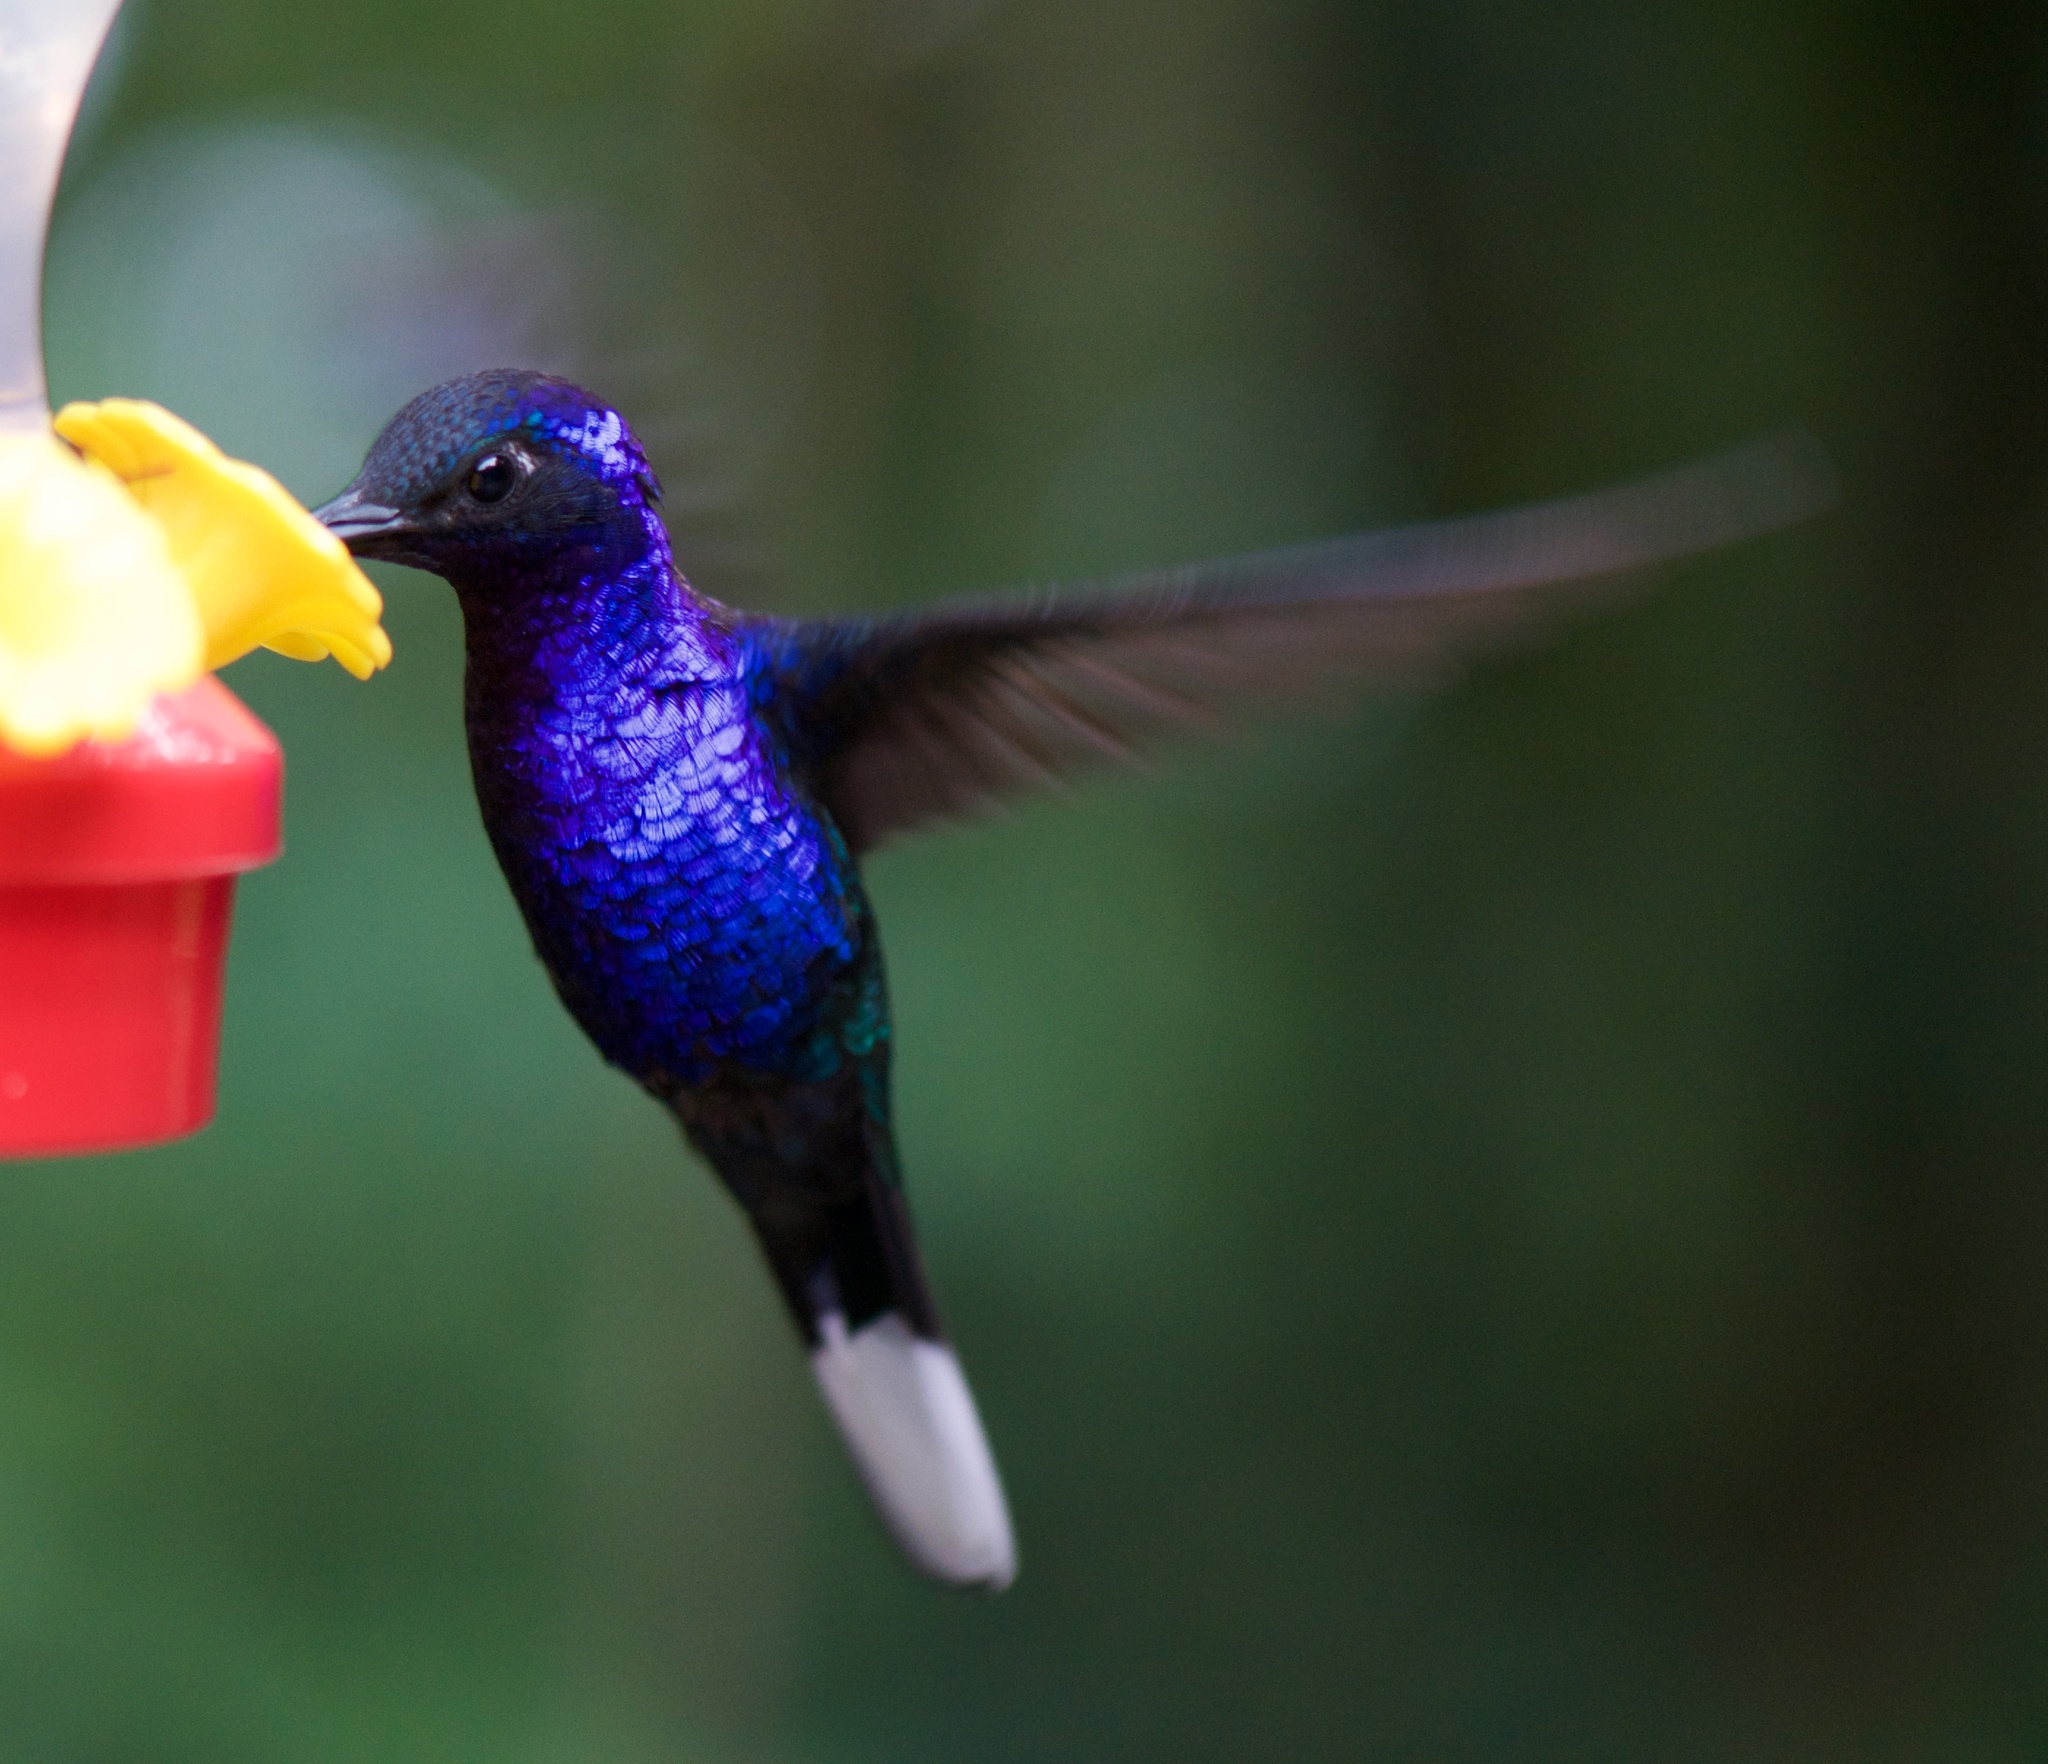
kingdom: Animalia
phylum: Chordata
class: Aves
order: Apodiformes
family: Trochilidae
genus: Campylopterus
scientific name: Campylopterus hemileucurus
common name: Violet sabrewing
